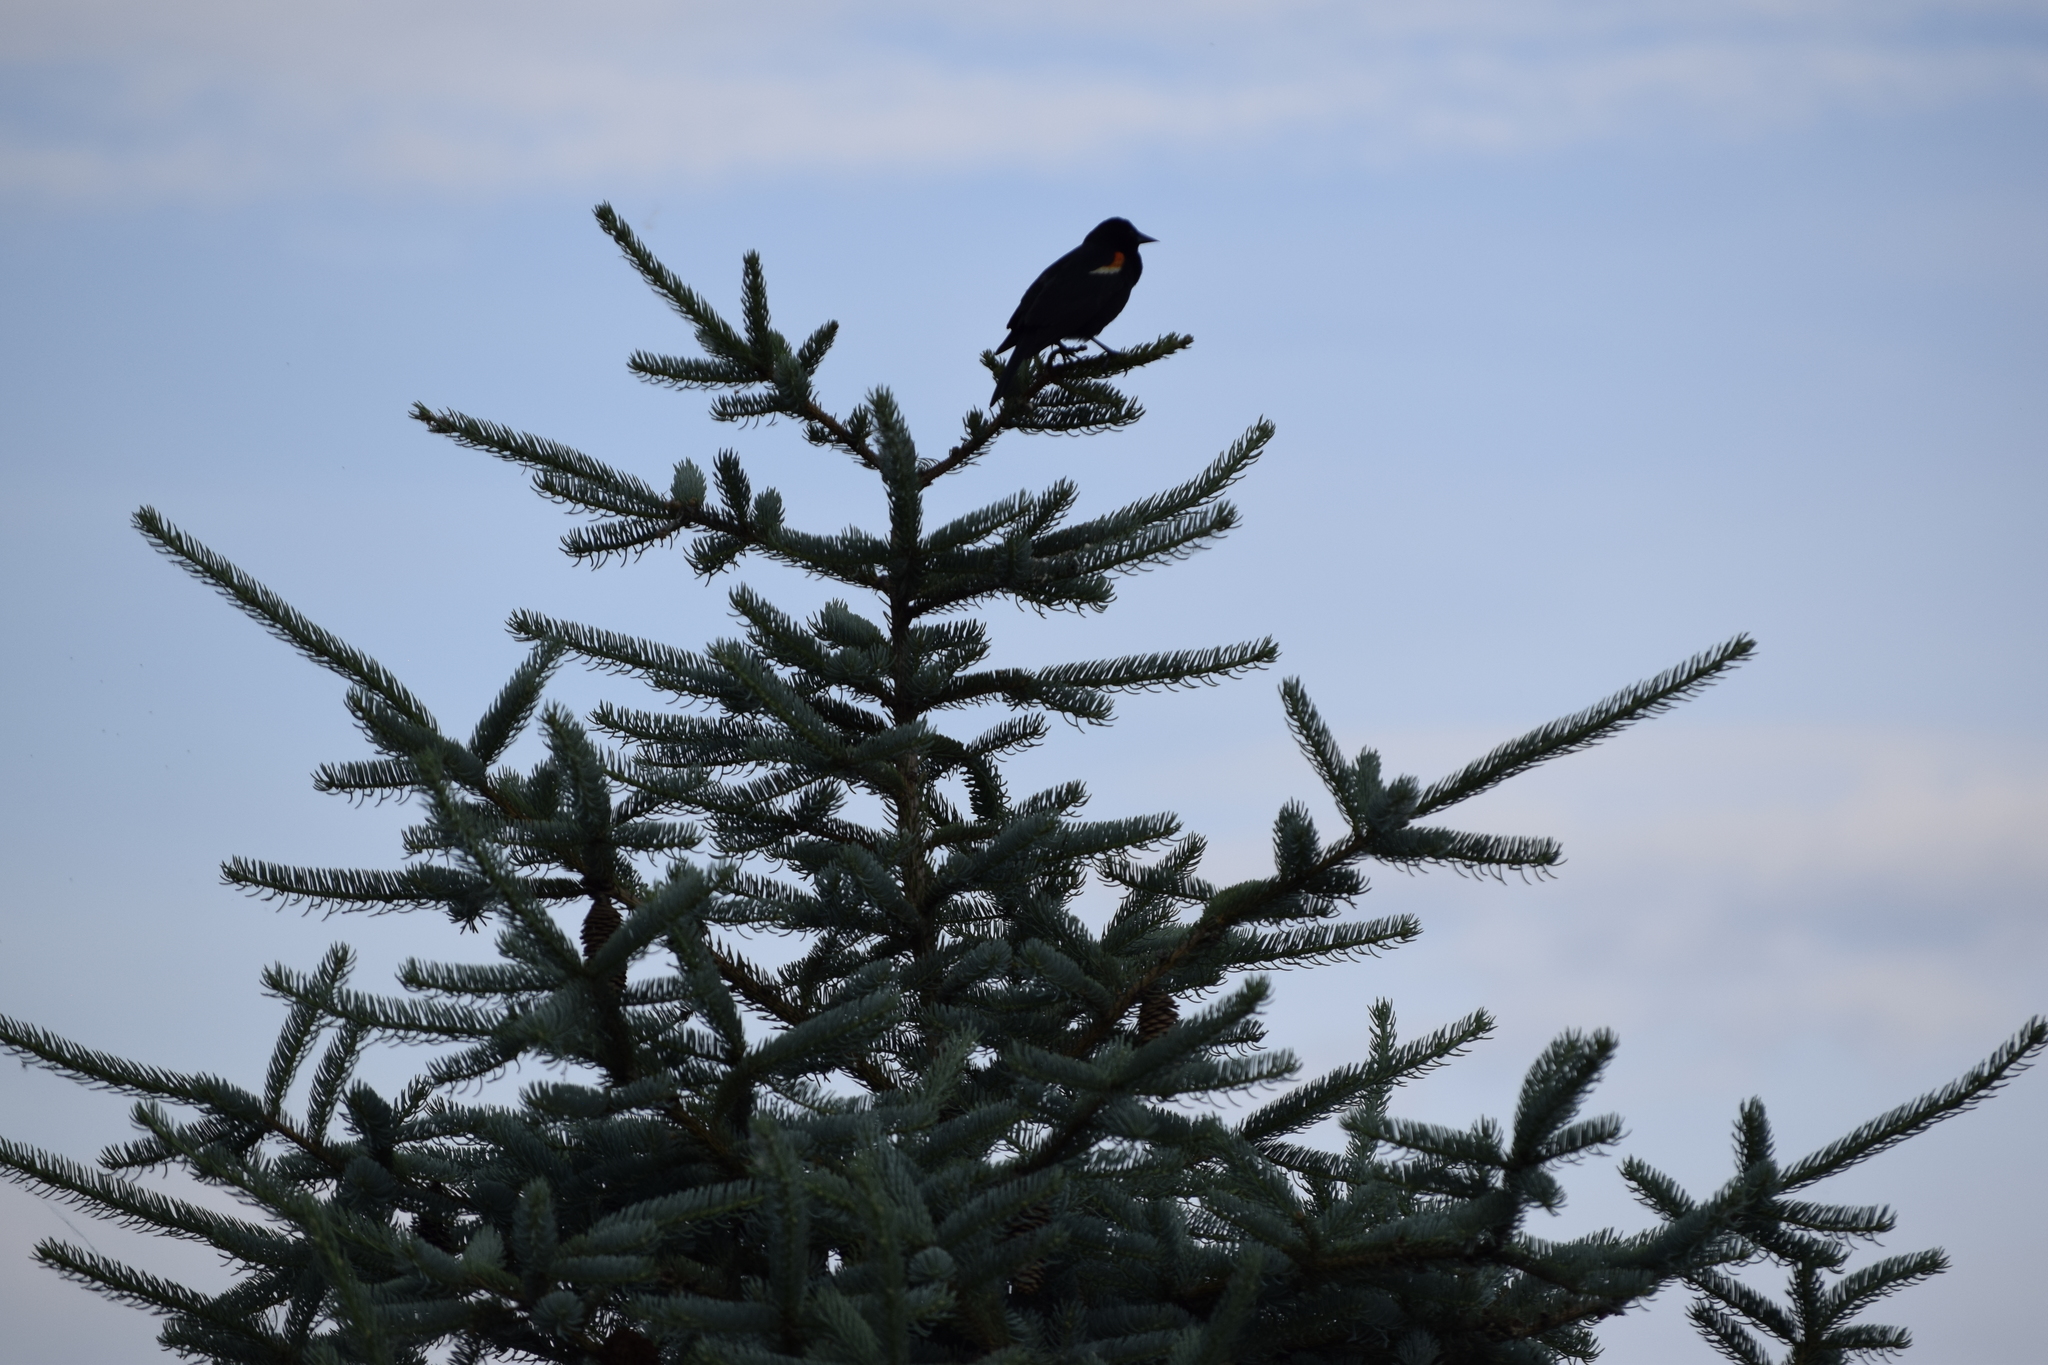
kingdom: Animalia
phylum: Chordata
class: Aves
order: Passeriformes
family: Icteridae
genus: Agelaius
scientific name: Agelaius phoeniceus
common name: Red-winged blackbird
